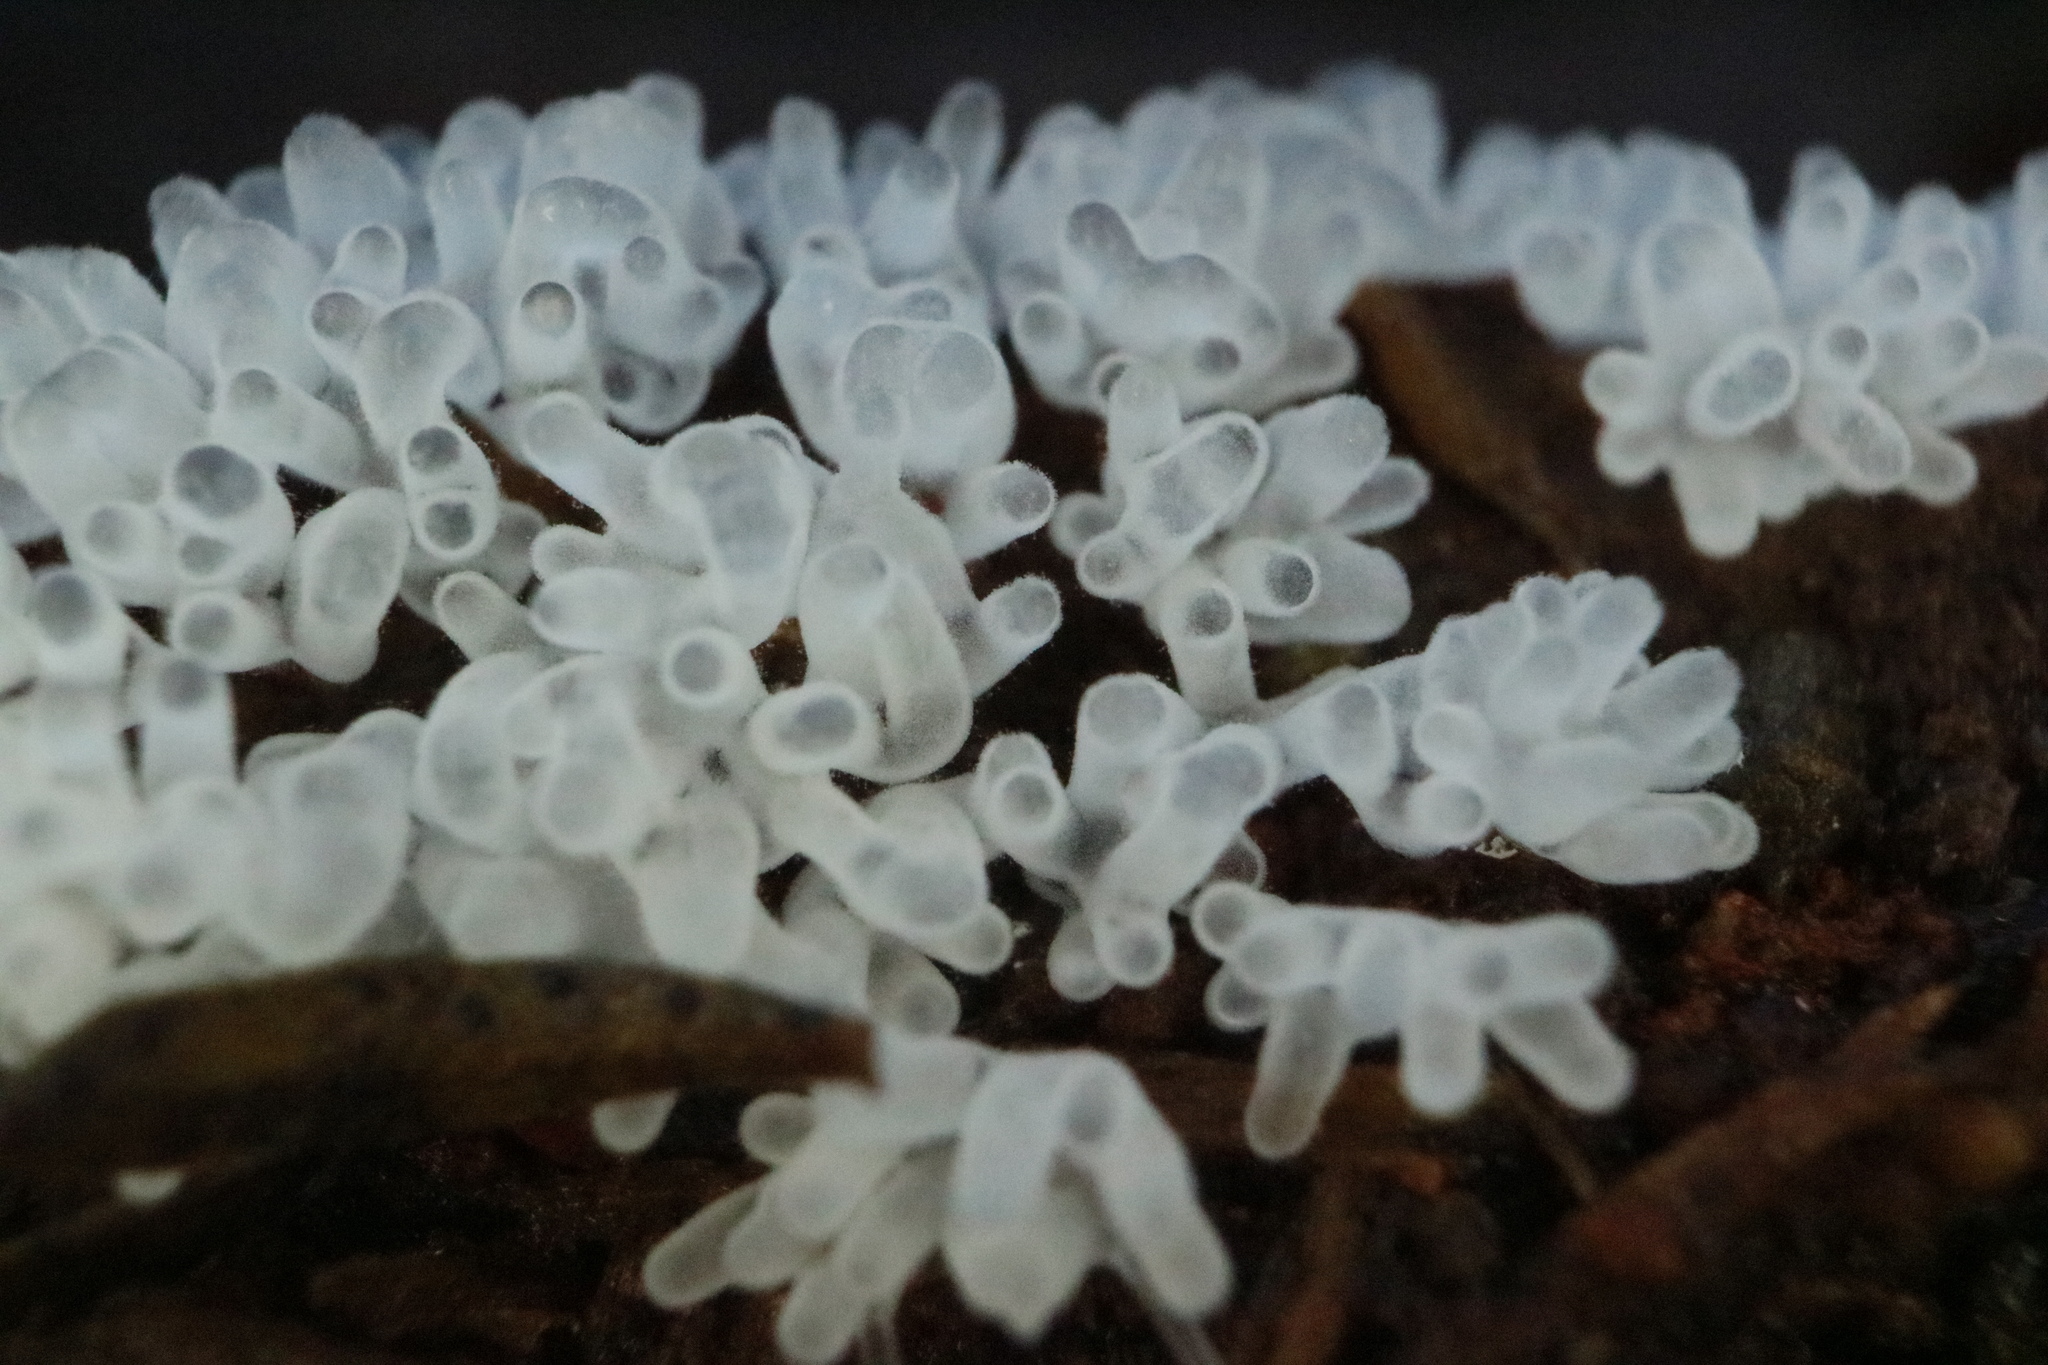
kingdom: Protozoa
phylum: Mycetozoa
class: Protosteliomycetes
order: Ceratiomyxales
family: Ceratiomyxaceae
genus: Ceratiomyxa
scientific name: Ceratiomyxa fruticulosa
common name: Honeycomb coral slime mold
